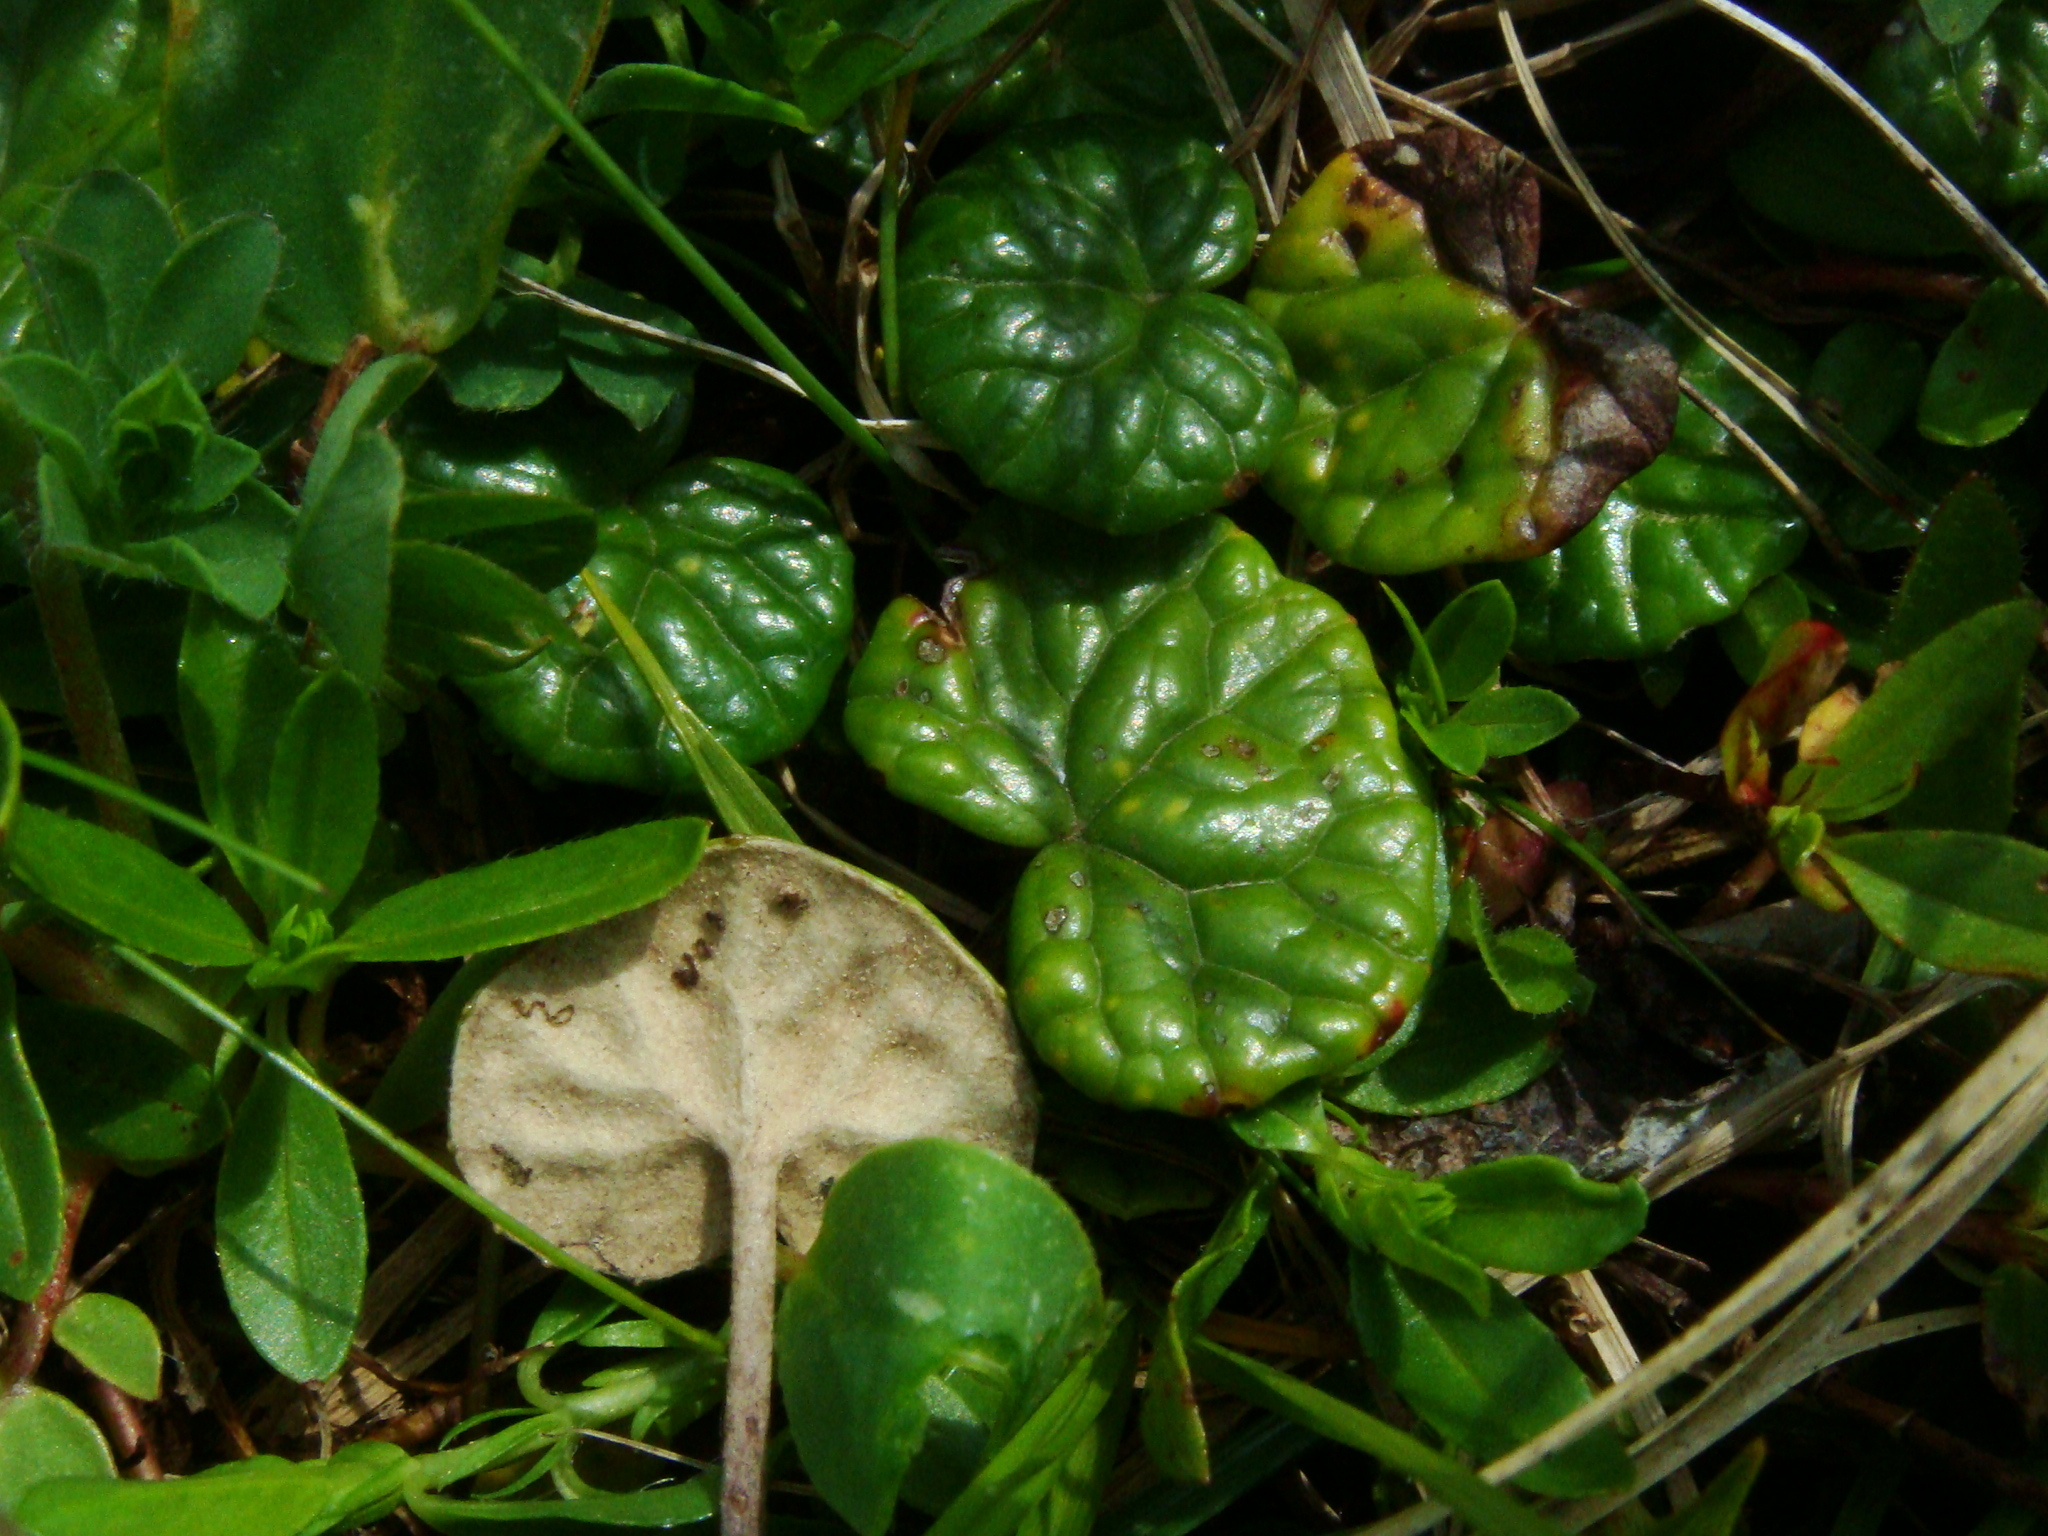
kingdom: Plantae
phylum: Tracheophyta
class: Magnoliopsida
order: Asterales
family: Asteraceae
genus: Homogyne
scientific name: Homogyne discolor
